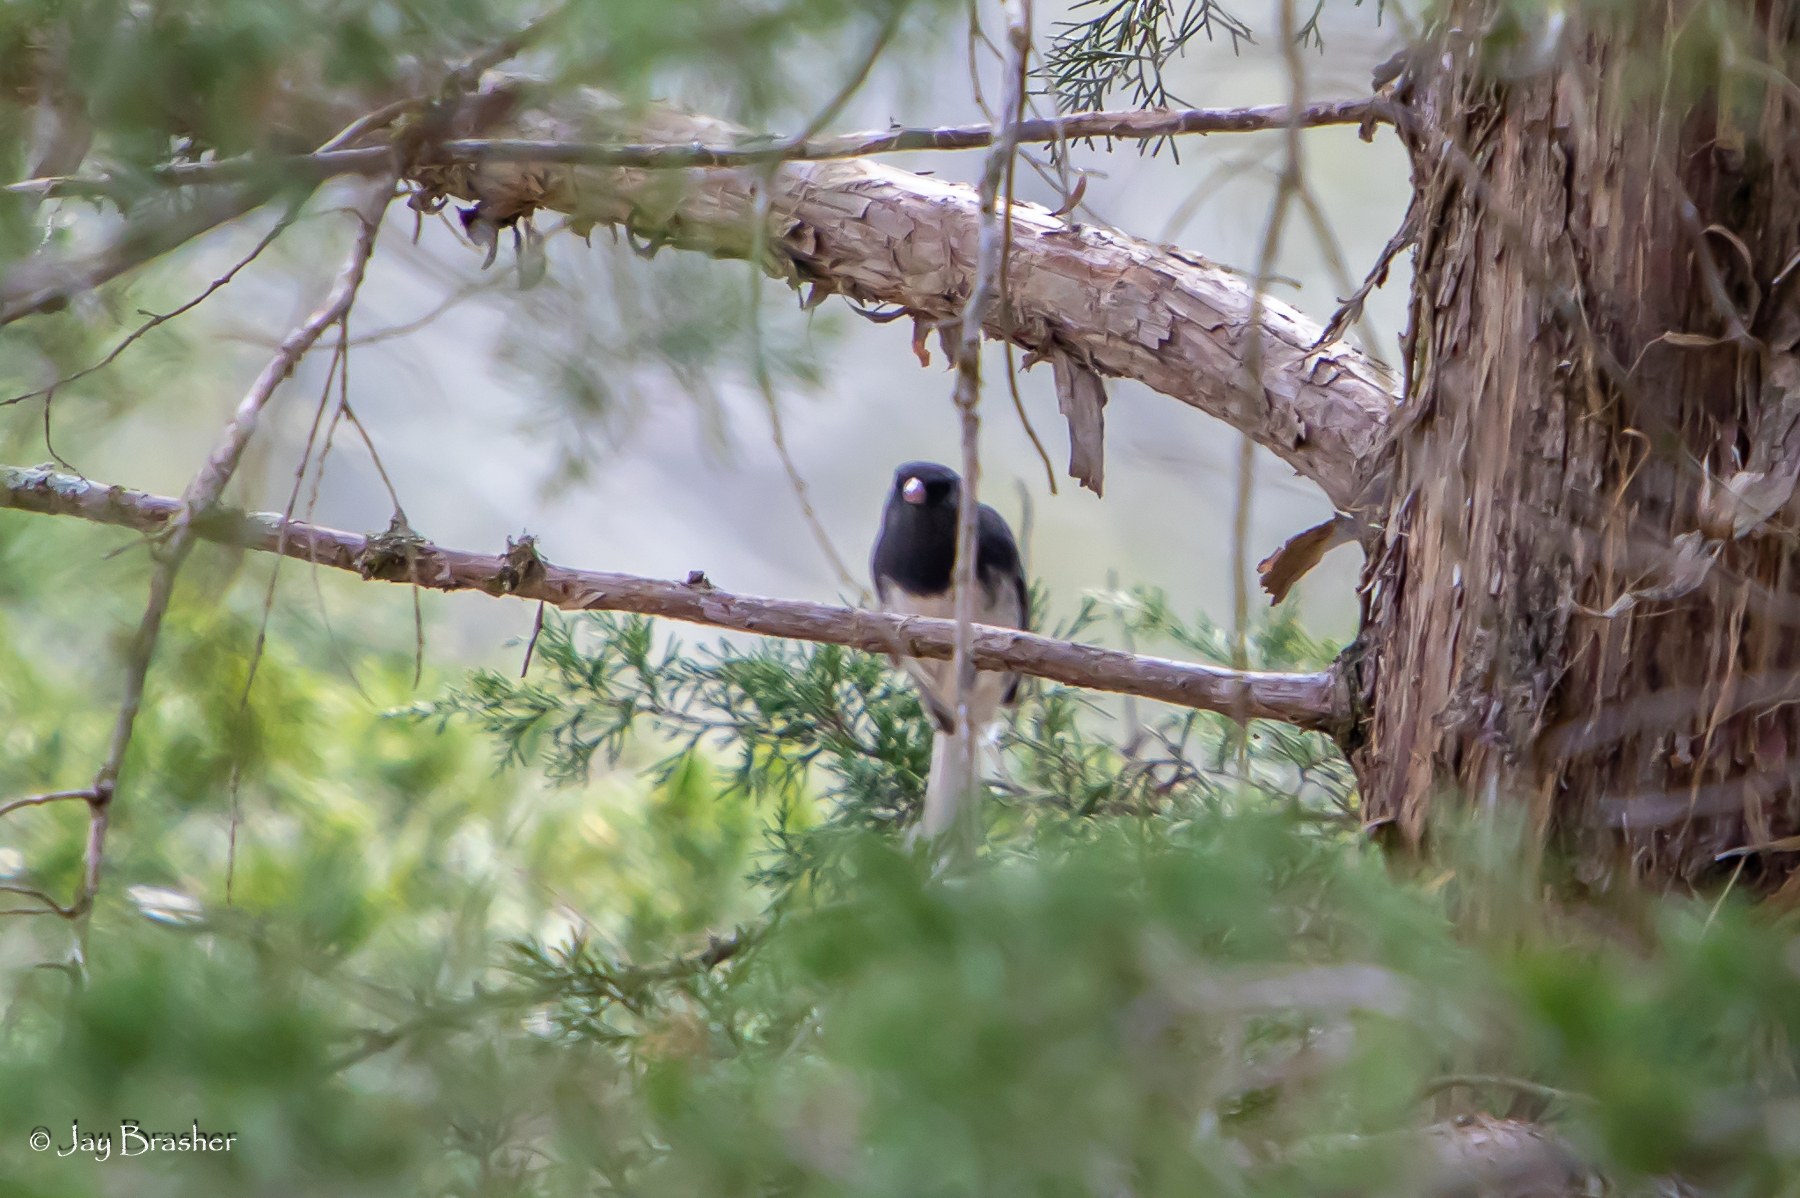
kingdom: Animalia
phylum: Chordata
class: Aves
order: Passeriformes
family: Passerellidae
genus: Junco
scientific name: Junco hyemalis
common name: Dark-eyed junco
